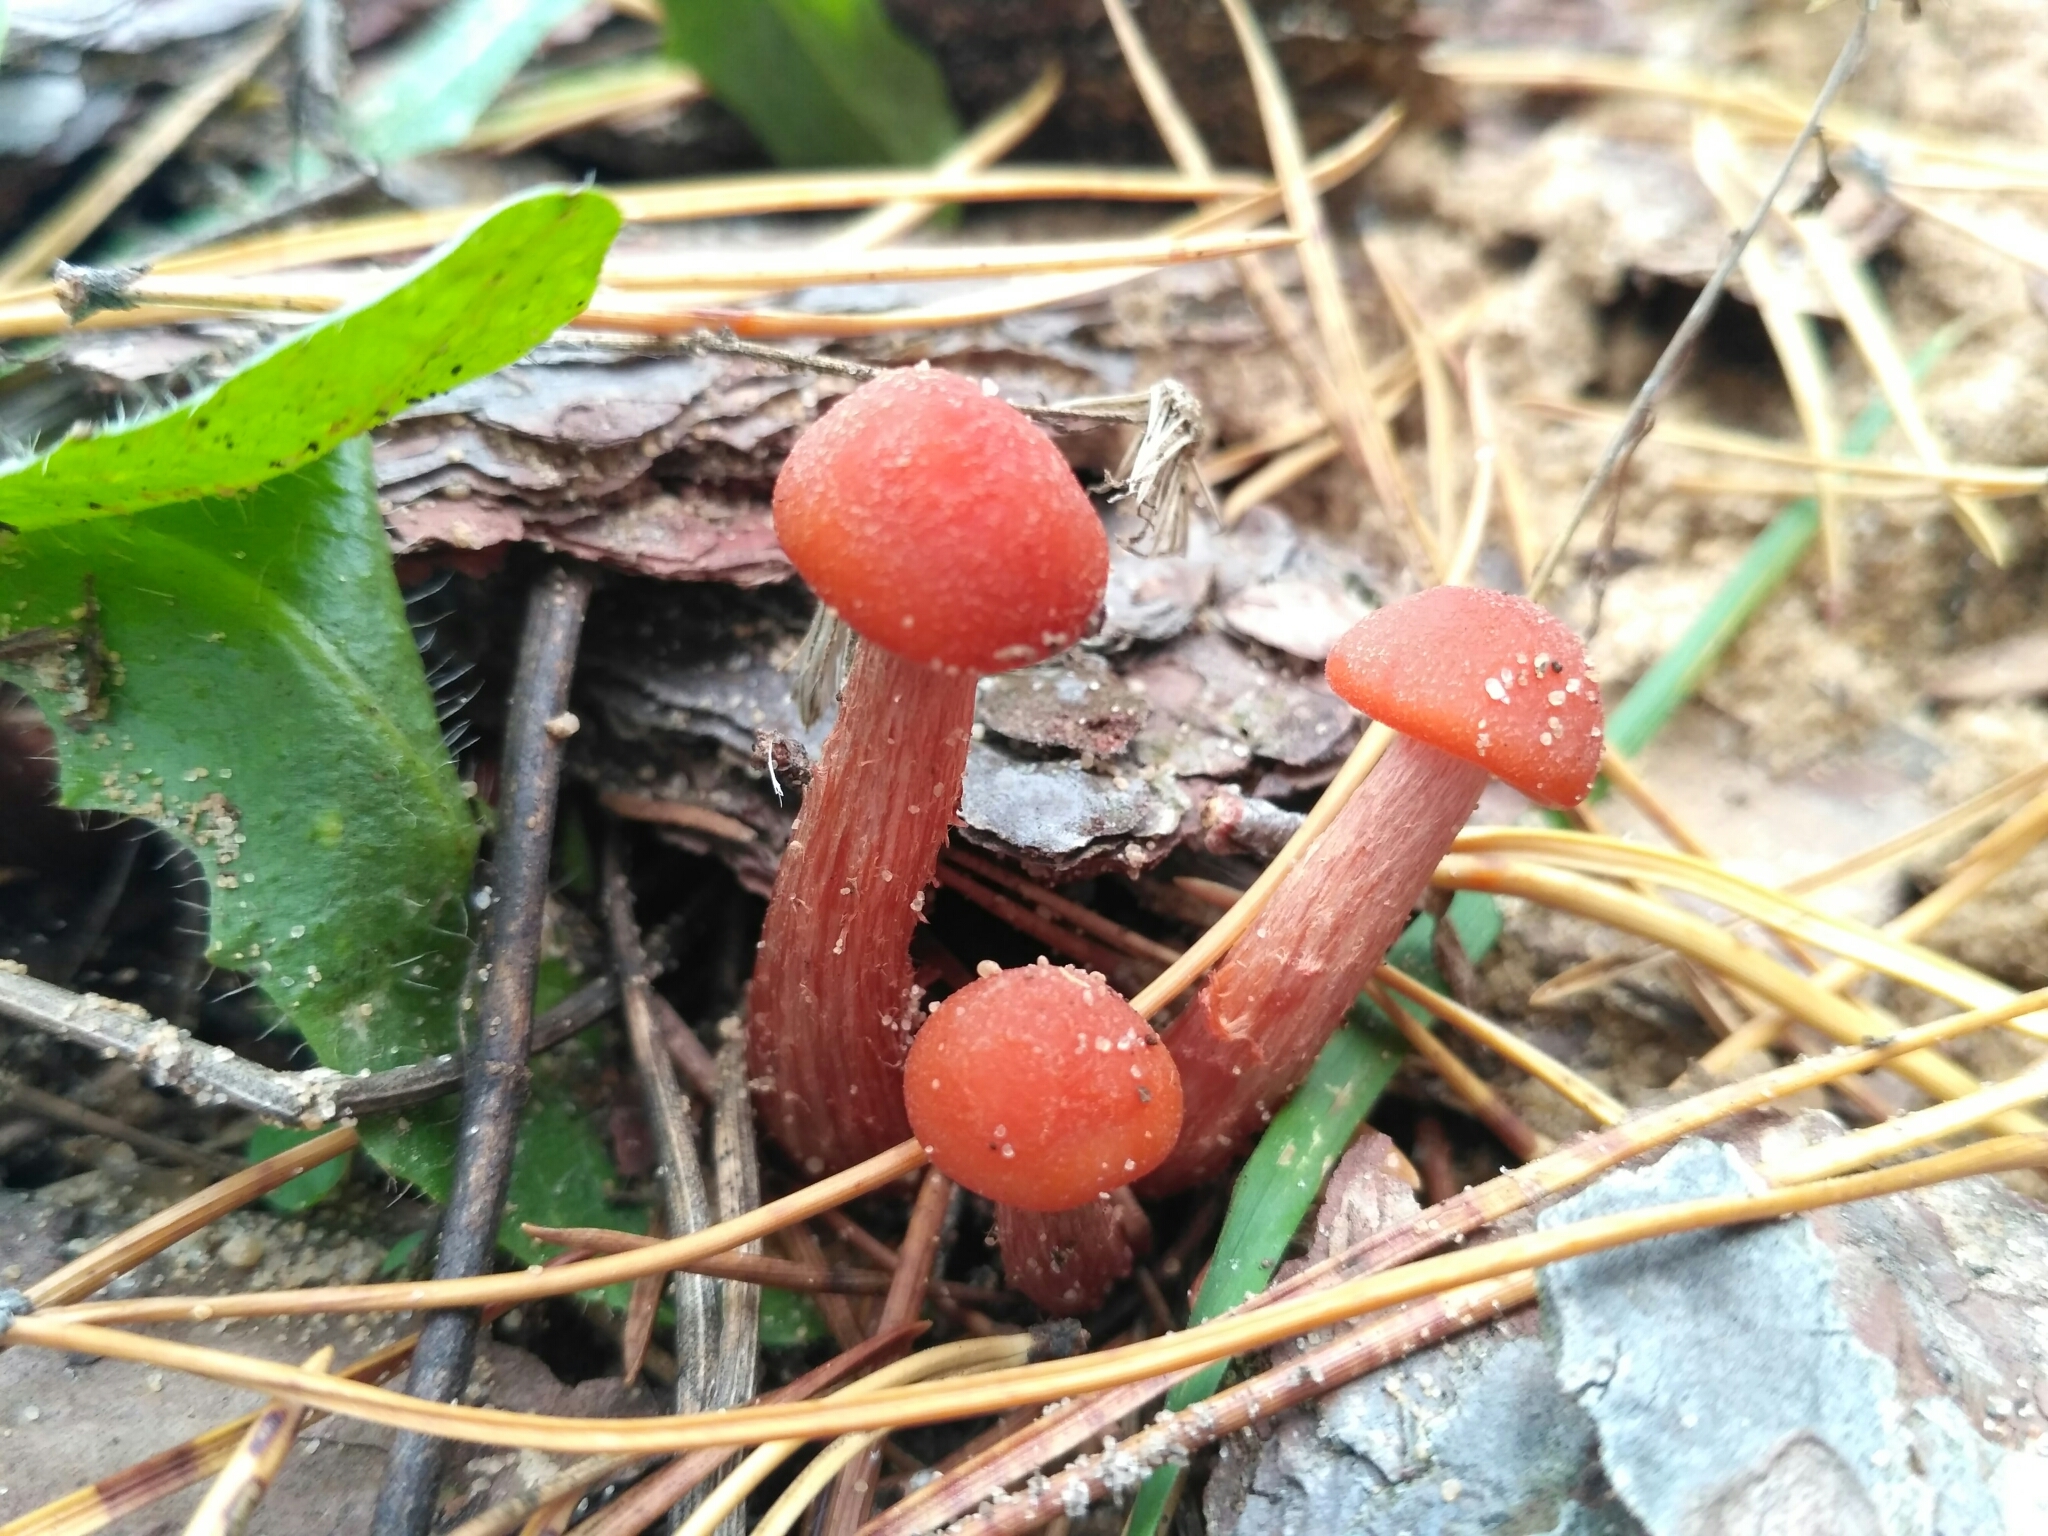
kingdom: Fungi
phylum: Basidiomycota
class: Agaricomycetes
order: Agaricales
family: Hydnangiaceae
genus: Laccaria
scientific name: Laccaria laccata
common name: Deceiver
